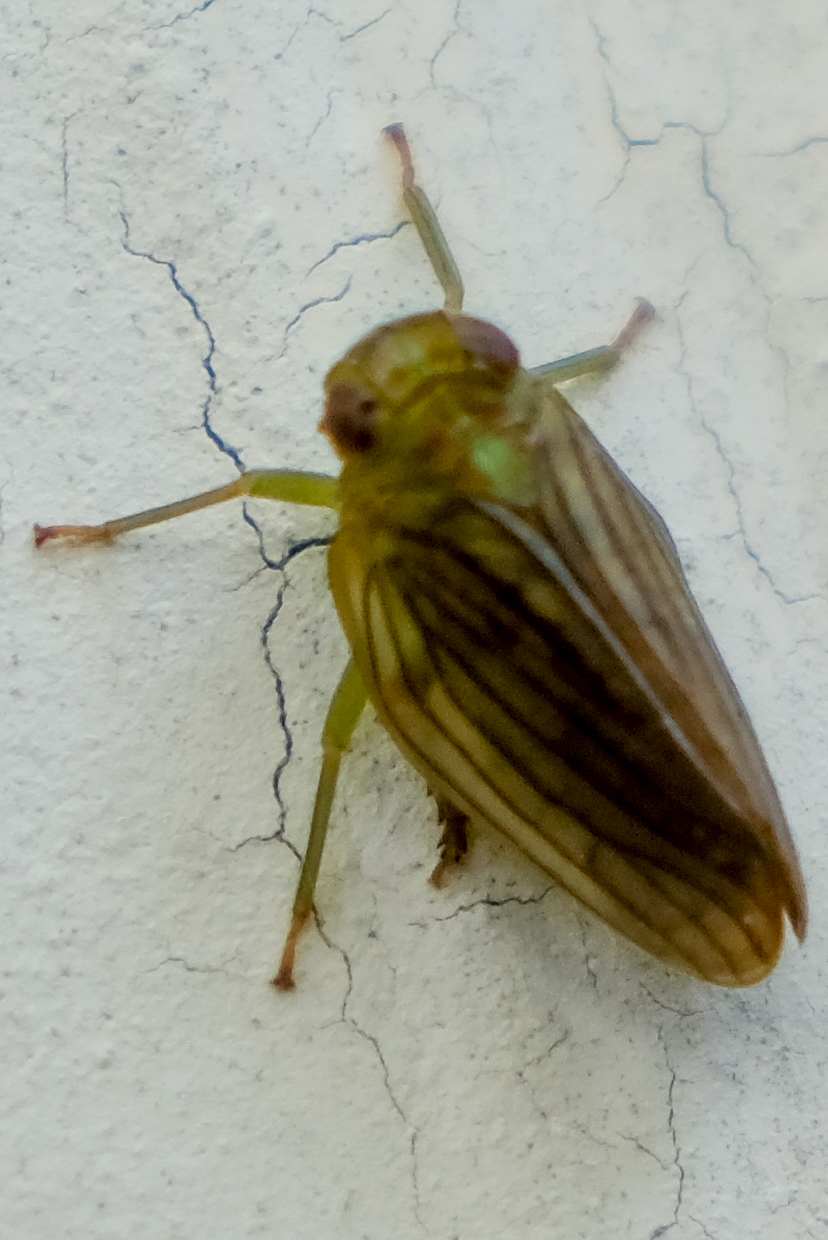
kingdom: Animalia
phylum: Arthropoda
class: Insecta
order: Hemiptera
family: Issidae
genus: Aplos
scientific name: Aplos simplex
